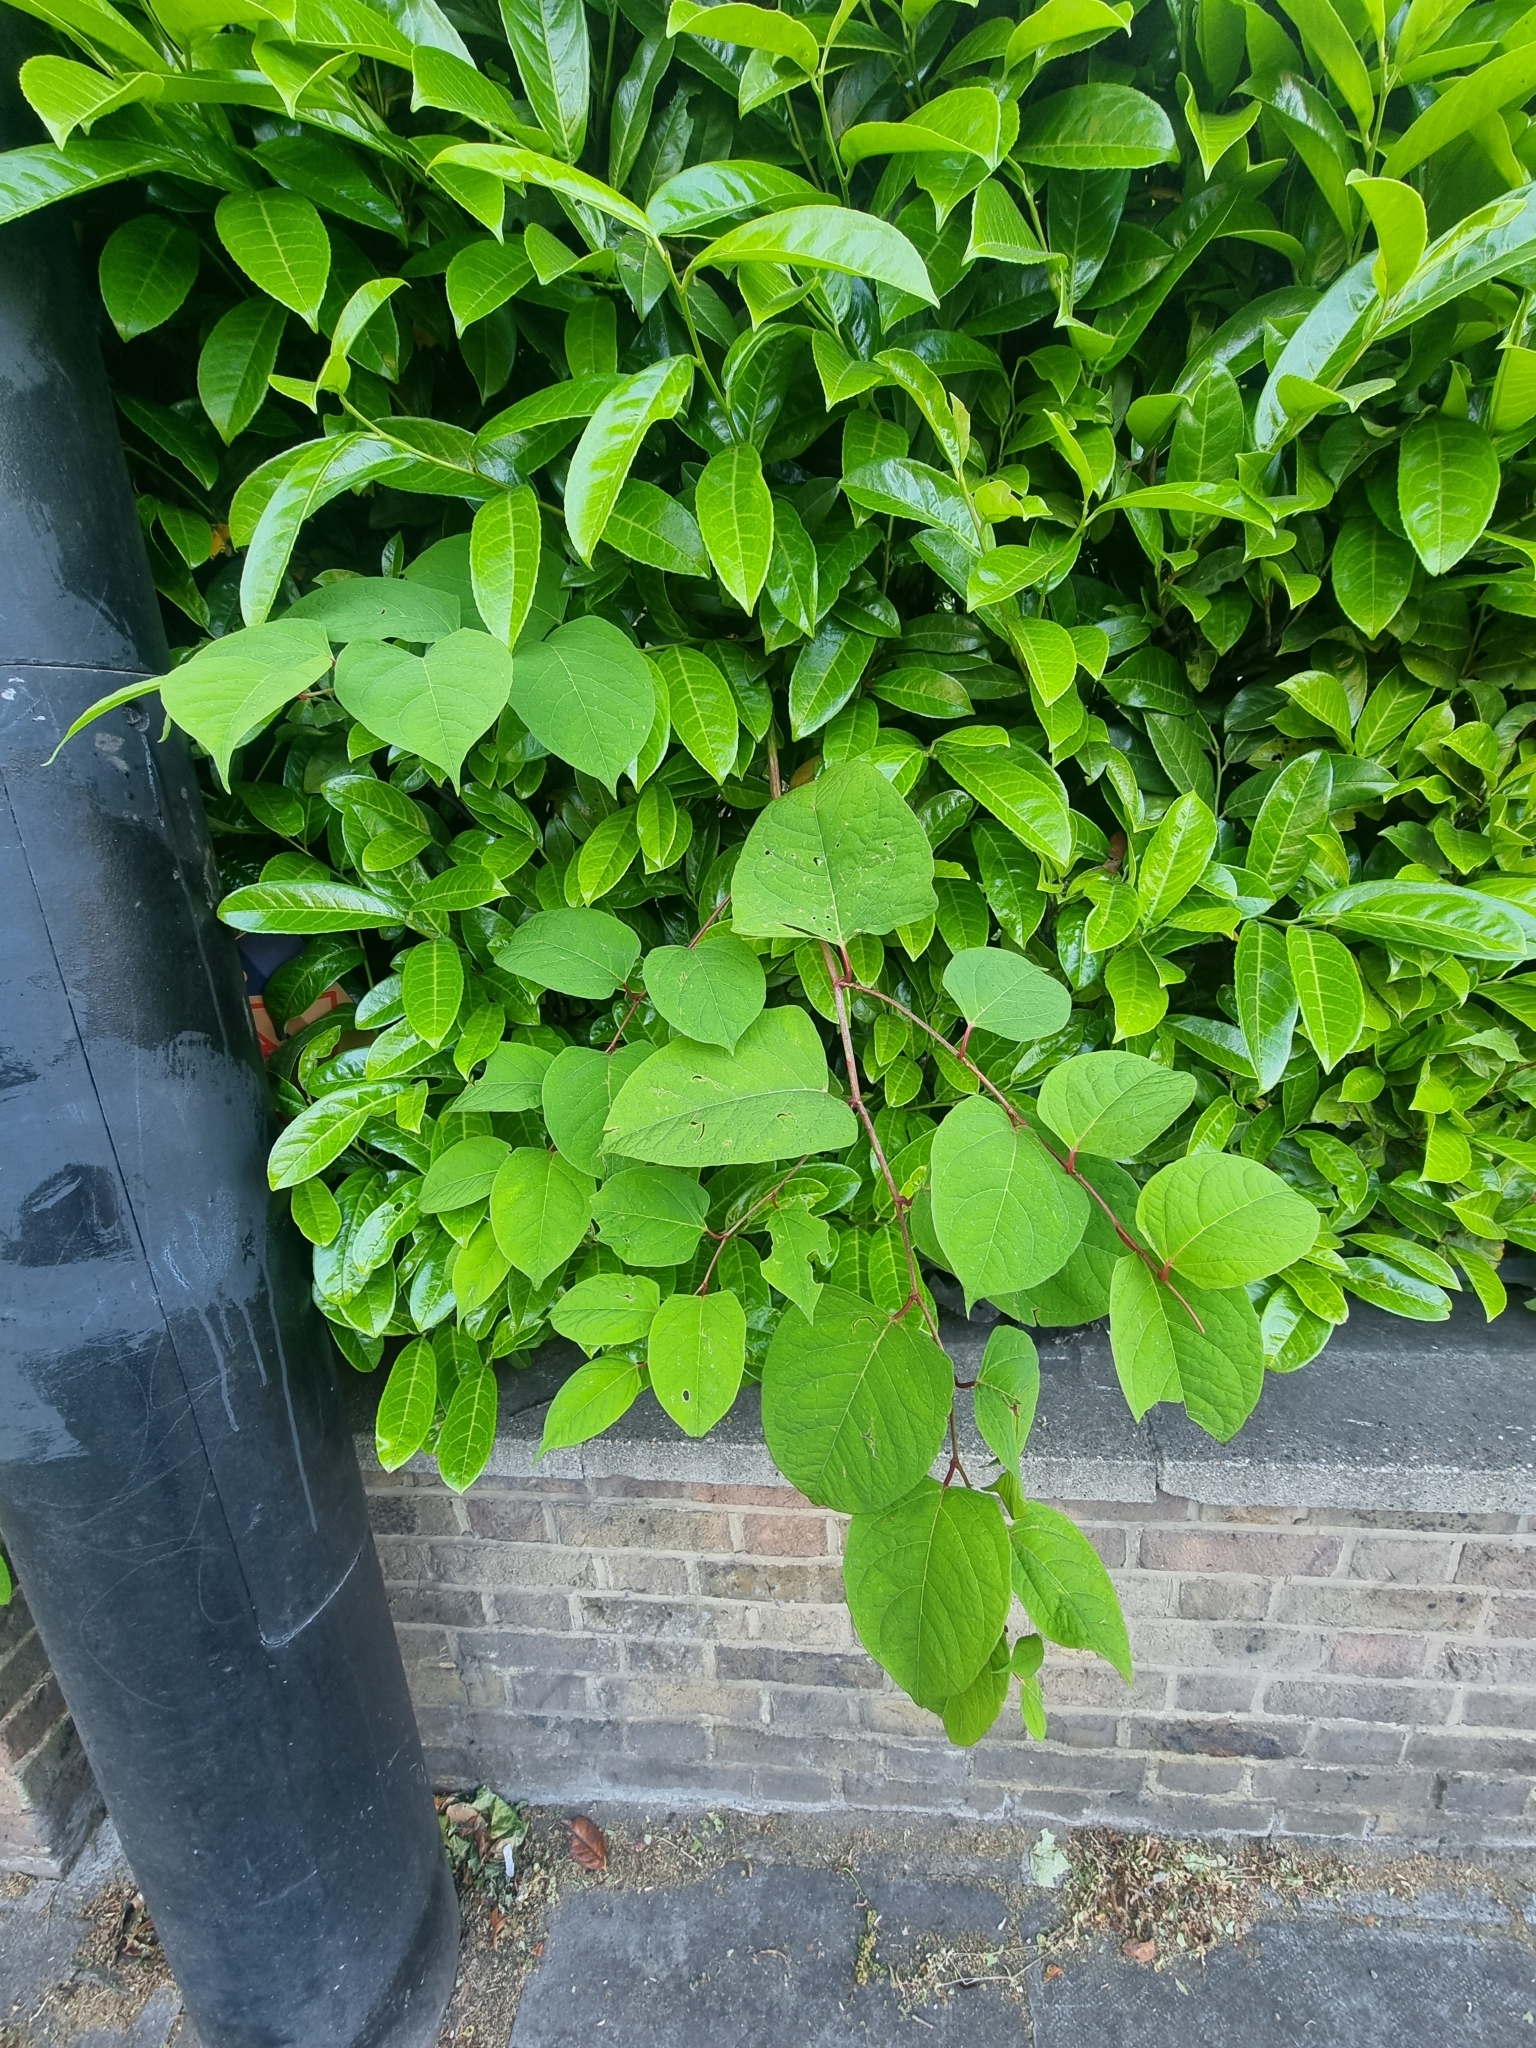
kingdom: Plantae
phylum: Tracheophyta
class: Magnoliopsida
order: Caryophyllales
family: Polygonaceae
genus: Reynoutria
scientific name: Reynoutria japonica
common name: Japanese knotweed
